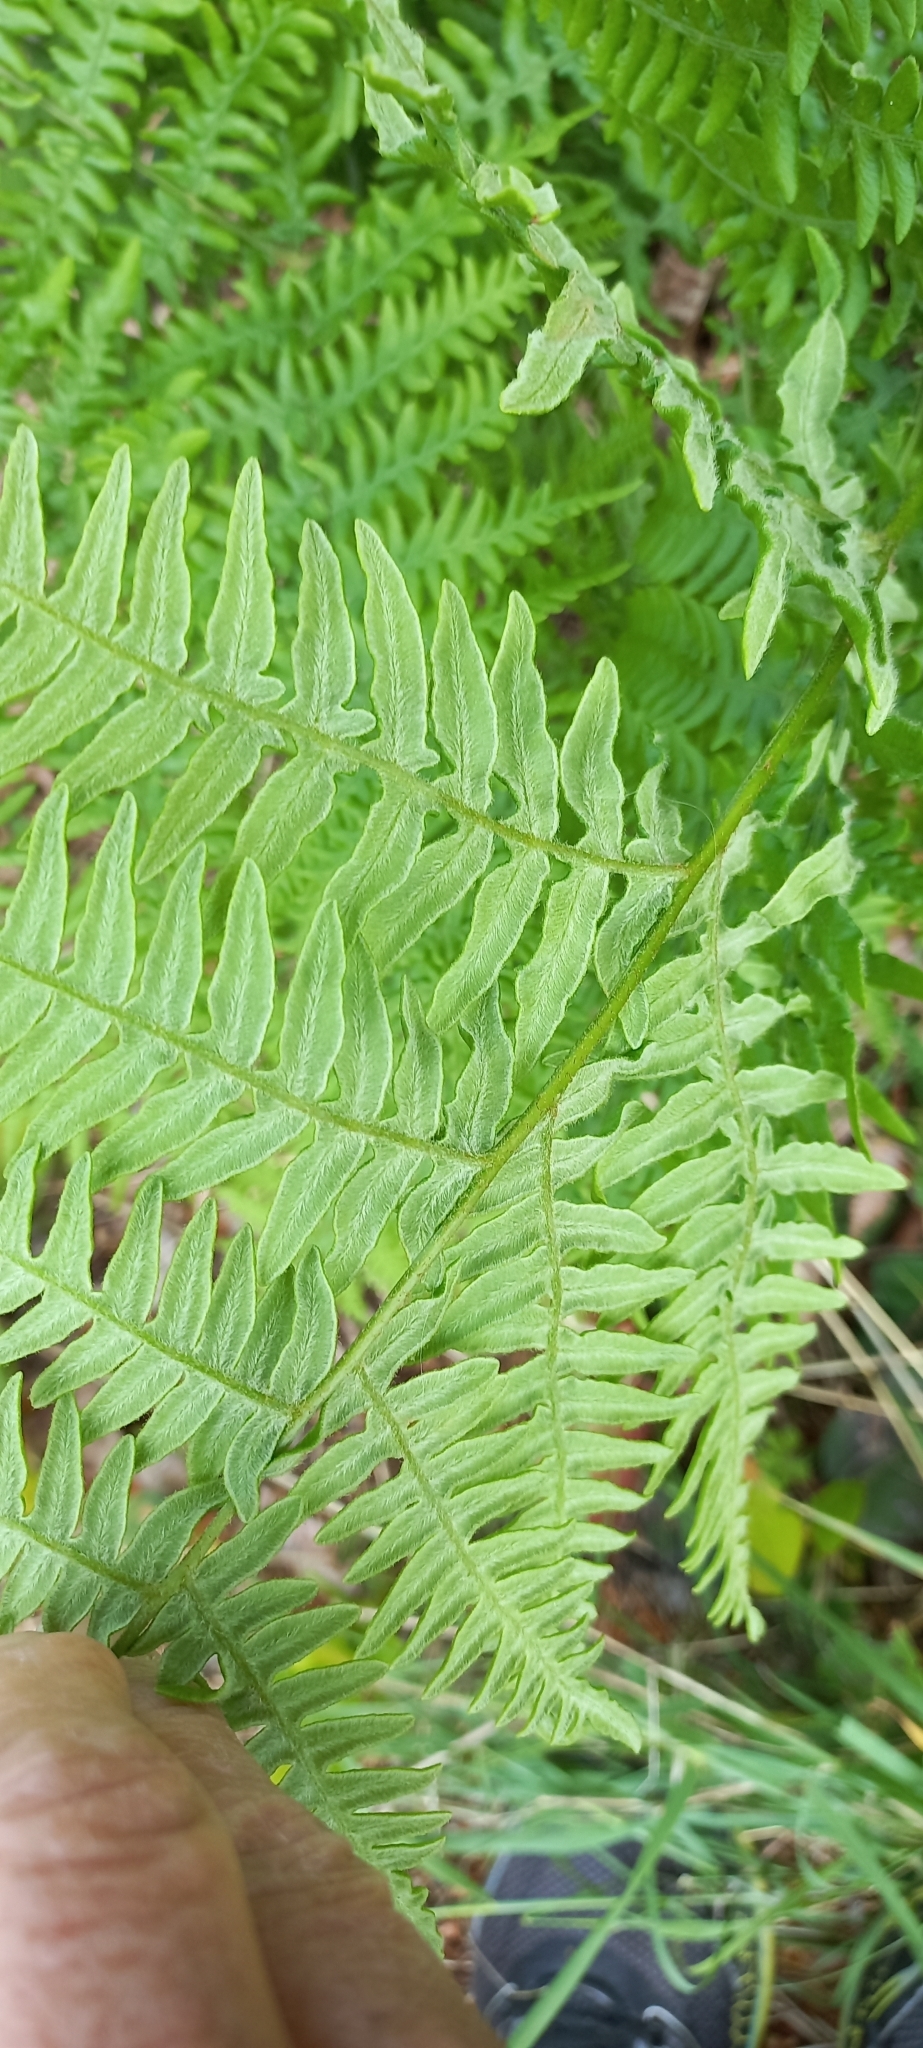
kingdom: Plantae
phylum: Tracheophyta
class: Polypodiopsida
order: Polypodiales
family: Dennstaedtiaceae
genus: Pteridium
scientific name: Pteridium aquilinum
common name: Bracken
